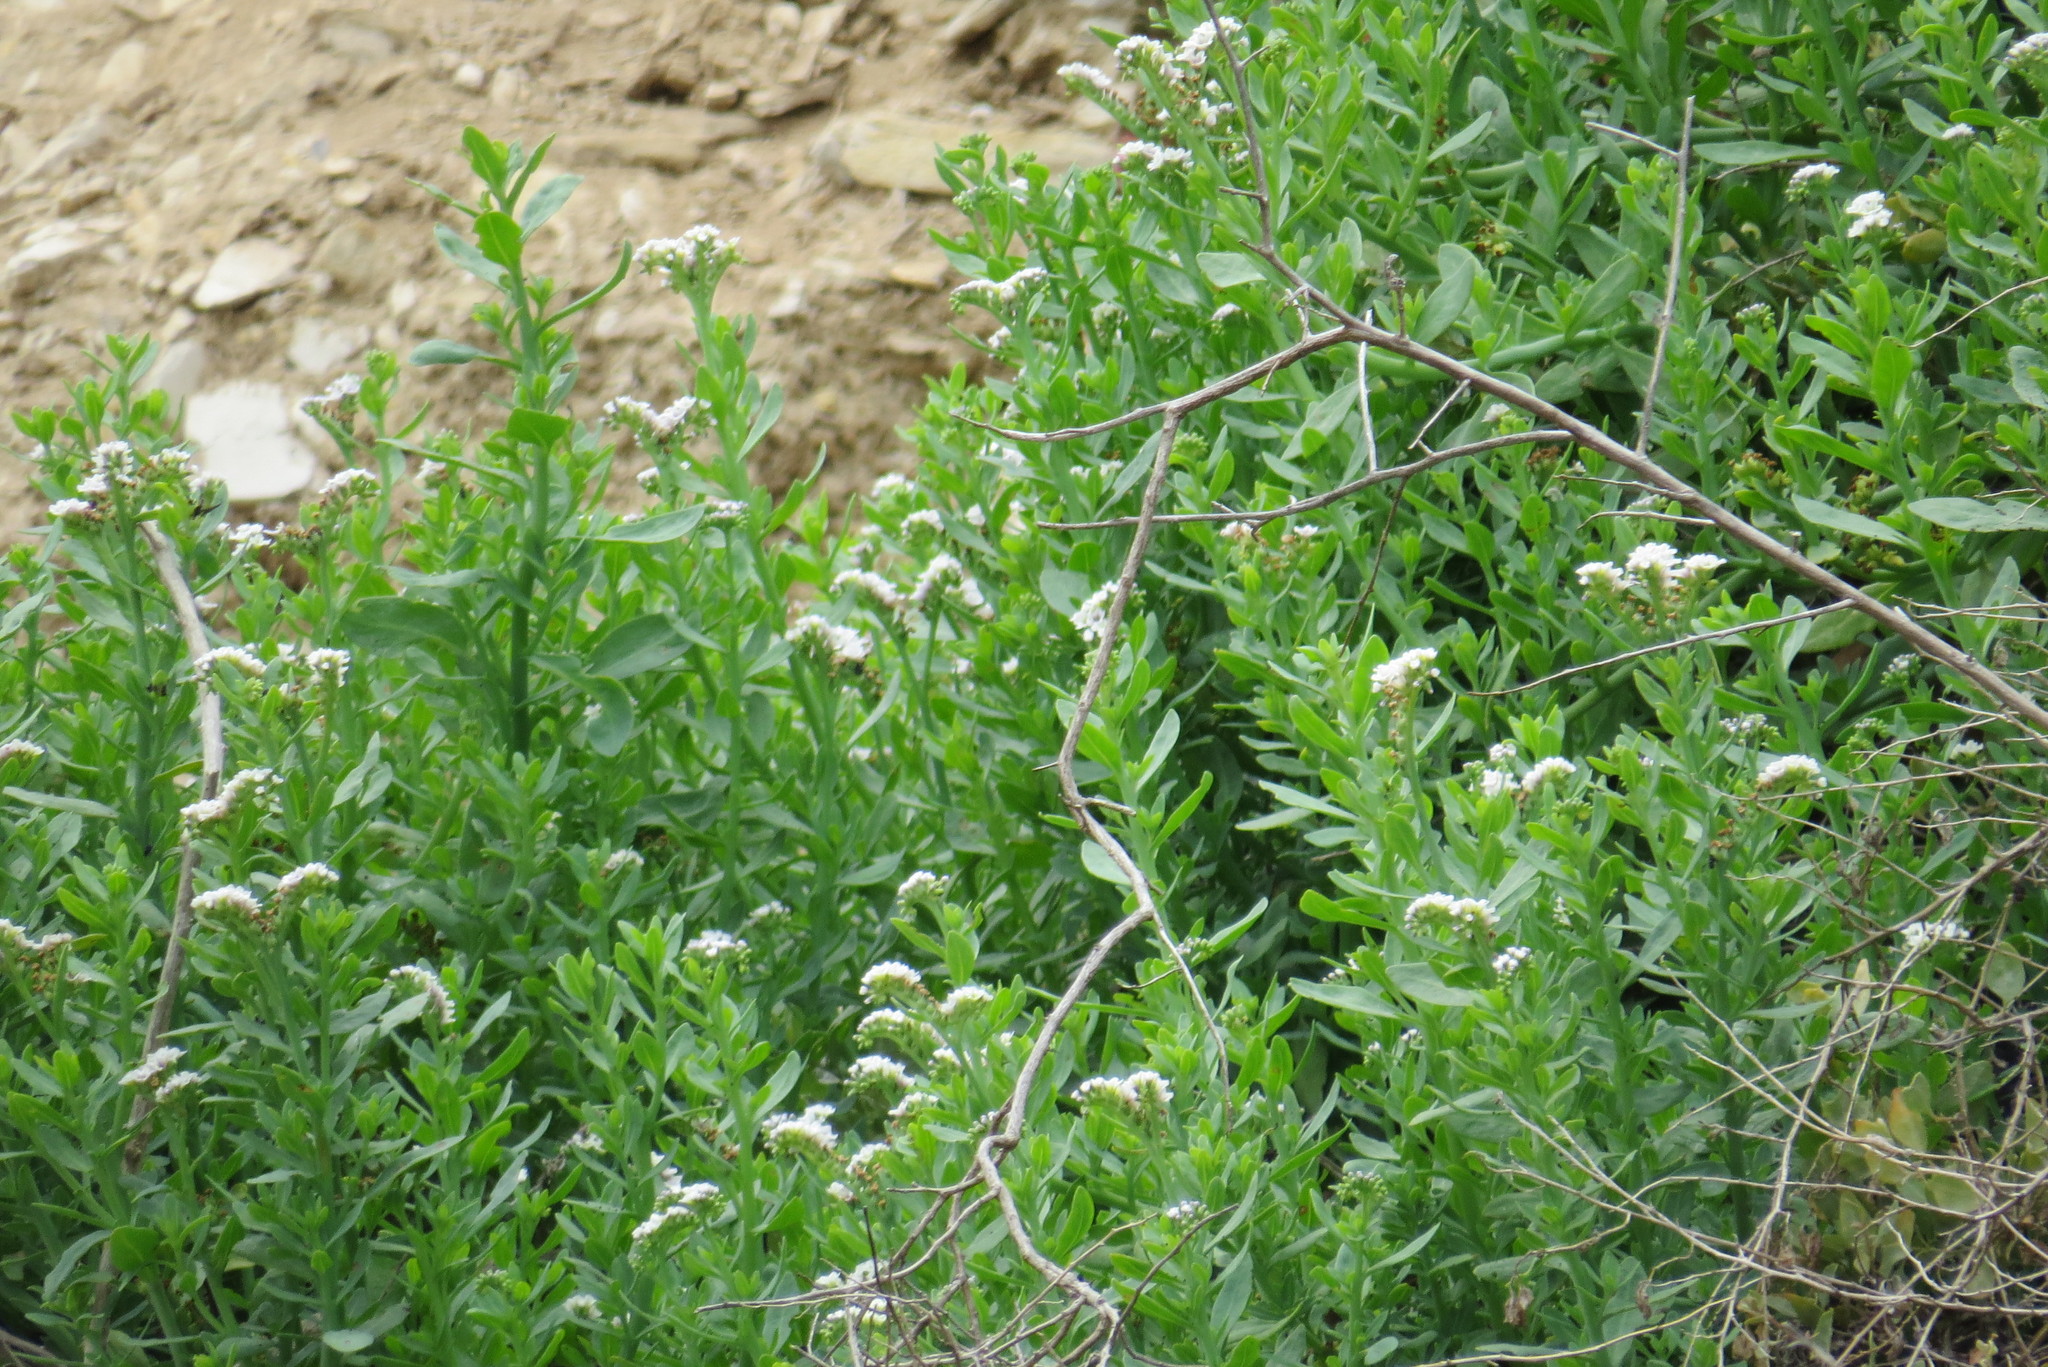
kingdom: Plantae
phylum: Tracheophyta
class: Magnoliopsida
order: Boraginales
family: Heliotropiaceae
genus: Heliotropium
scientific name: Heliotropium curassavicum
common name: Seaside heliotrope
